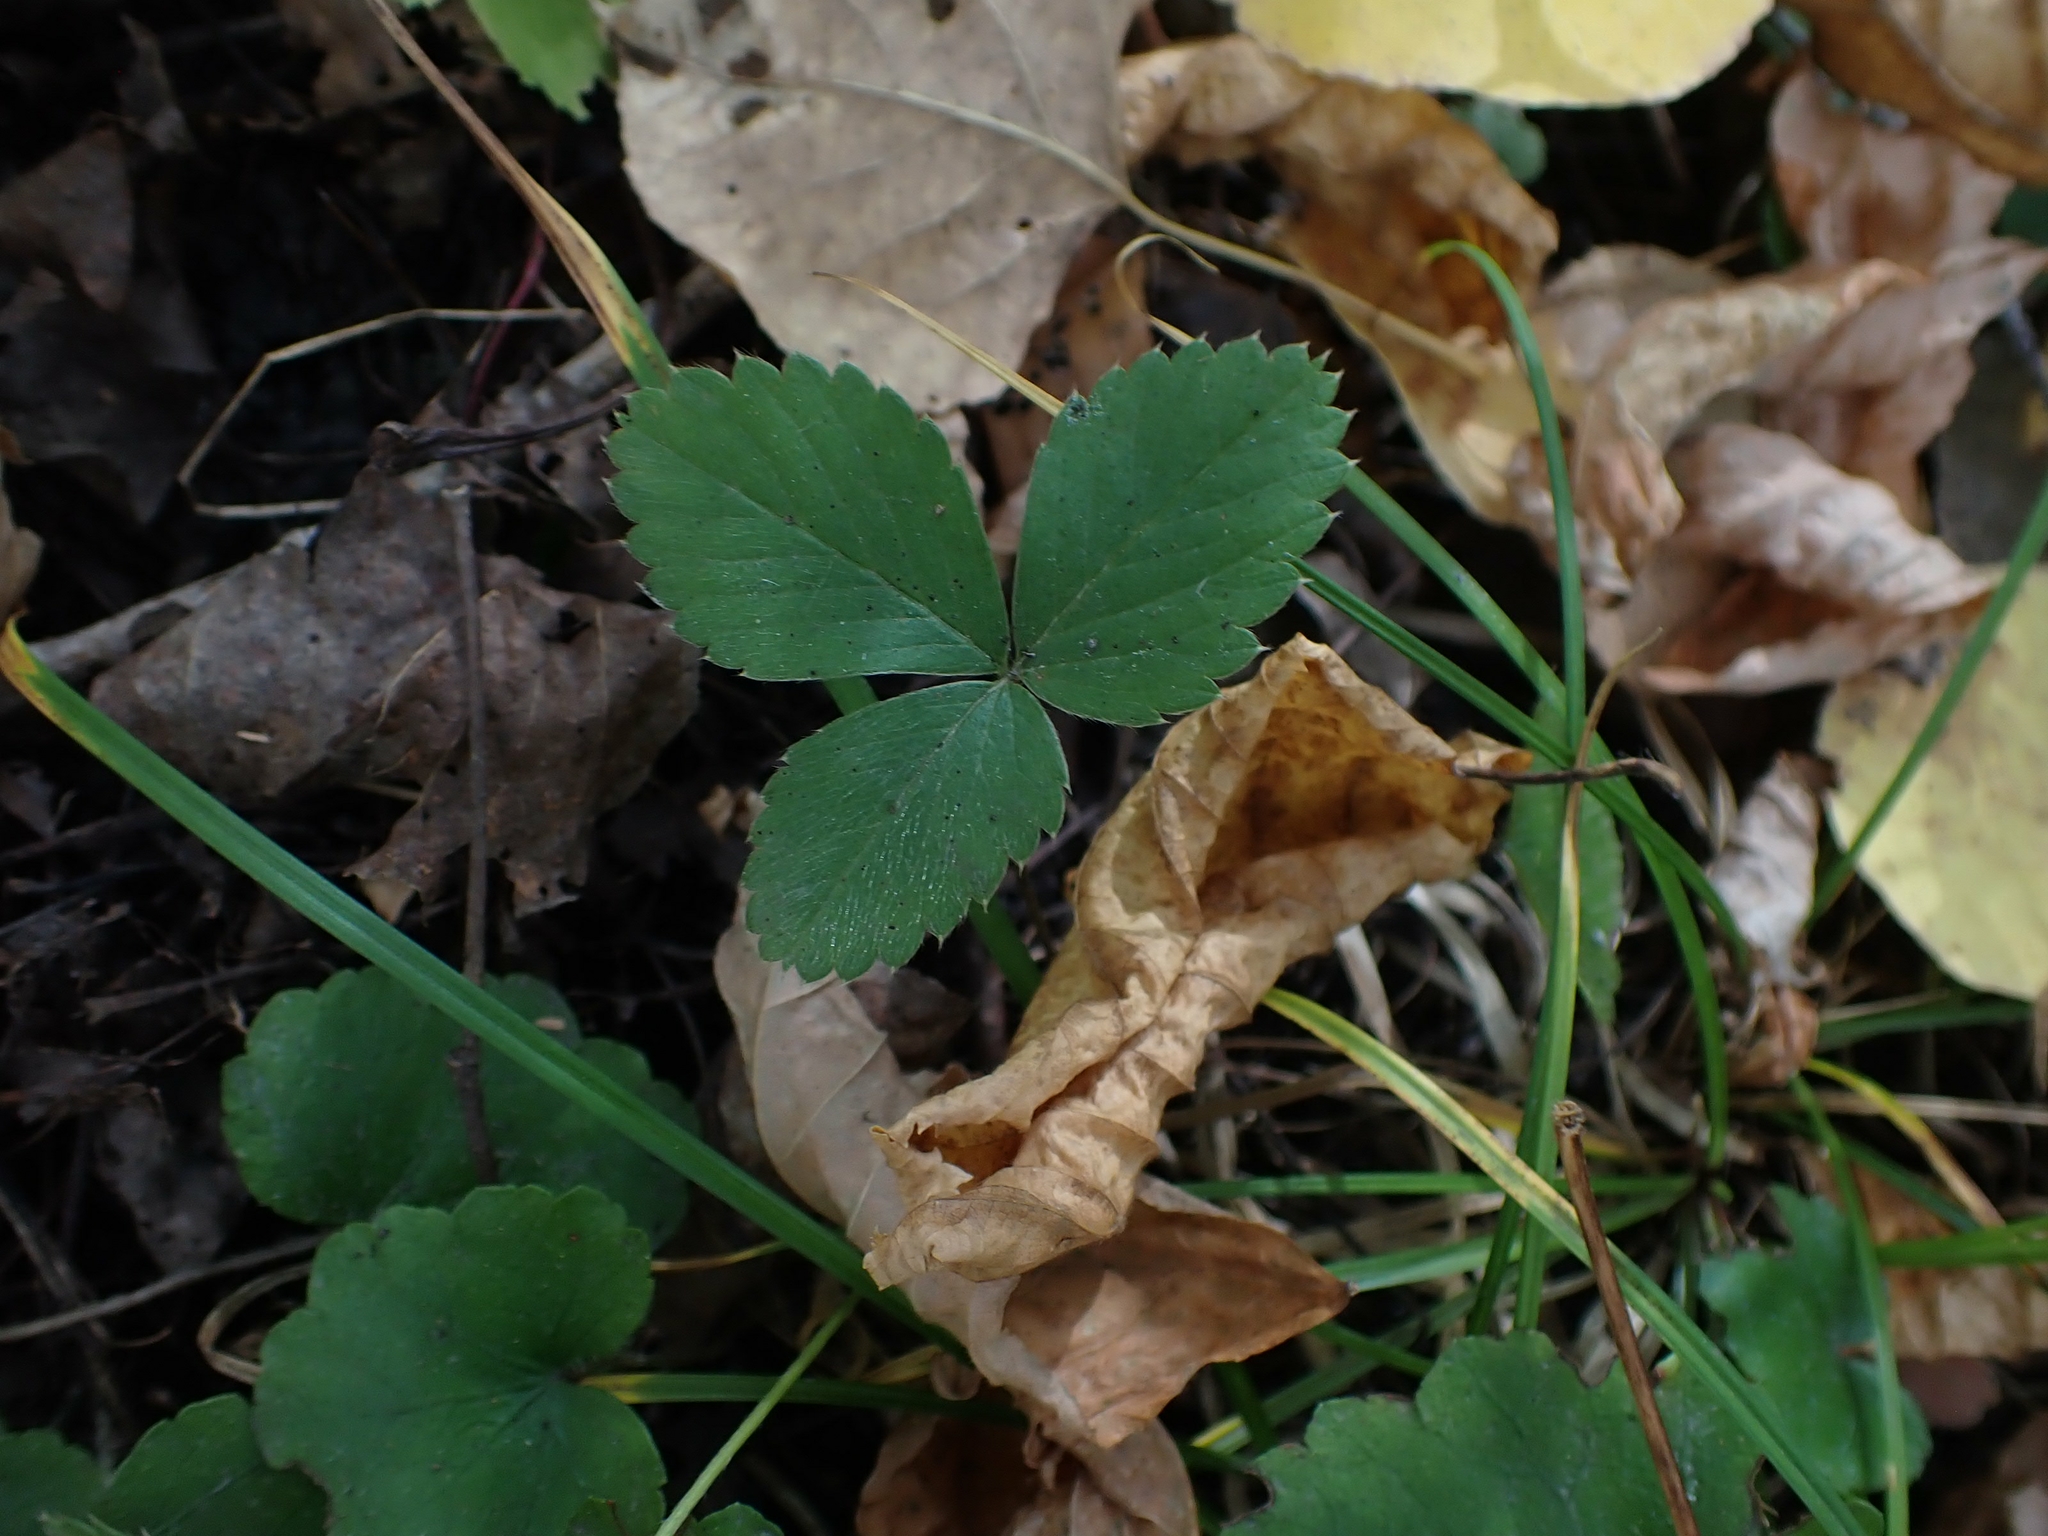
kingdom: Plantae
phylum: Tracheophyta
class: Magnoliopsida
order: Rosales
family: Rosaceae
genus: Fragaria
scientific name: Fragaria virginiana
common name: Thickleaved wild strawberry
